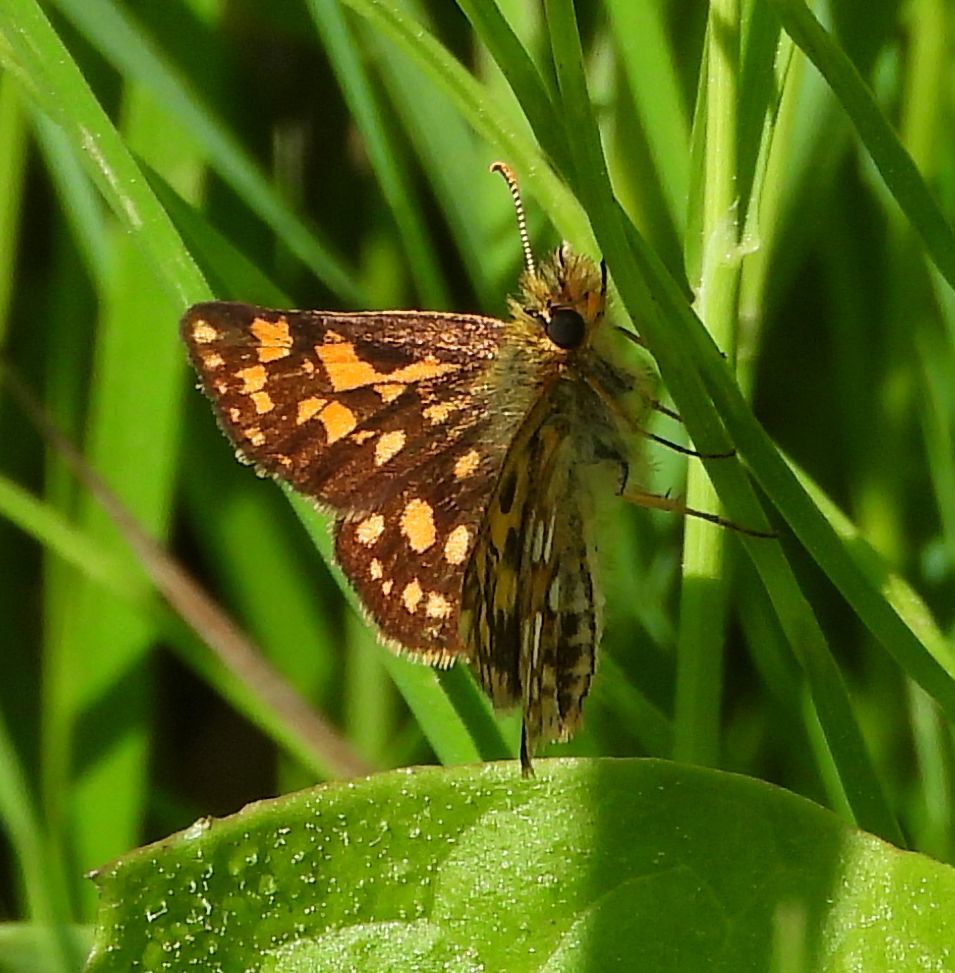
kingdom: Animalia
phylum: Arthropoda
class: Insecta
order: Lepidoptera
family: Hesperiidae
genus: Carterocephalus
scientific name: Carterocephalus mandan
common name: Arctic skipperling
